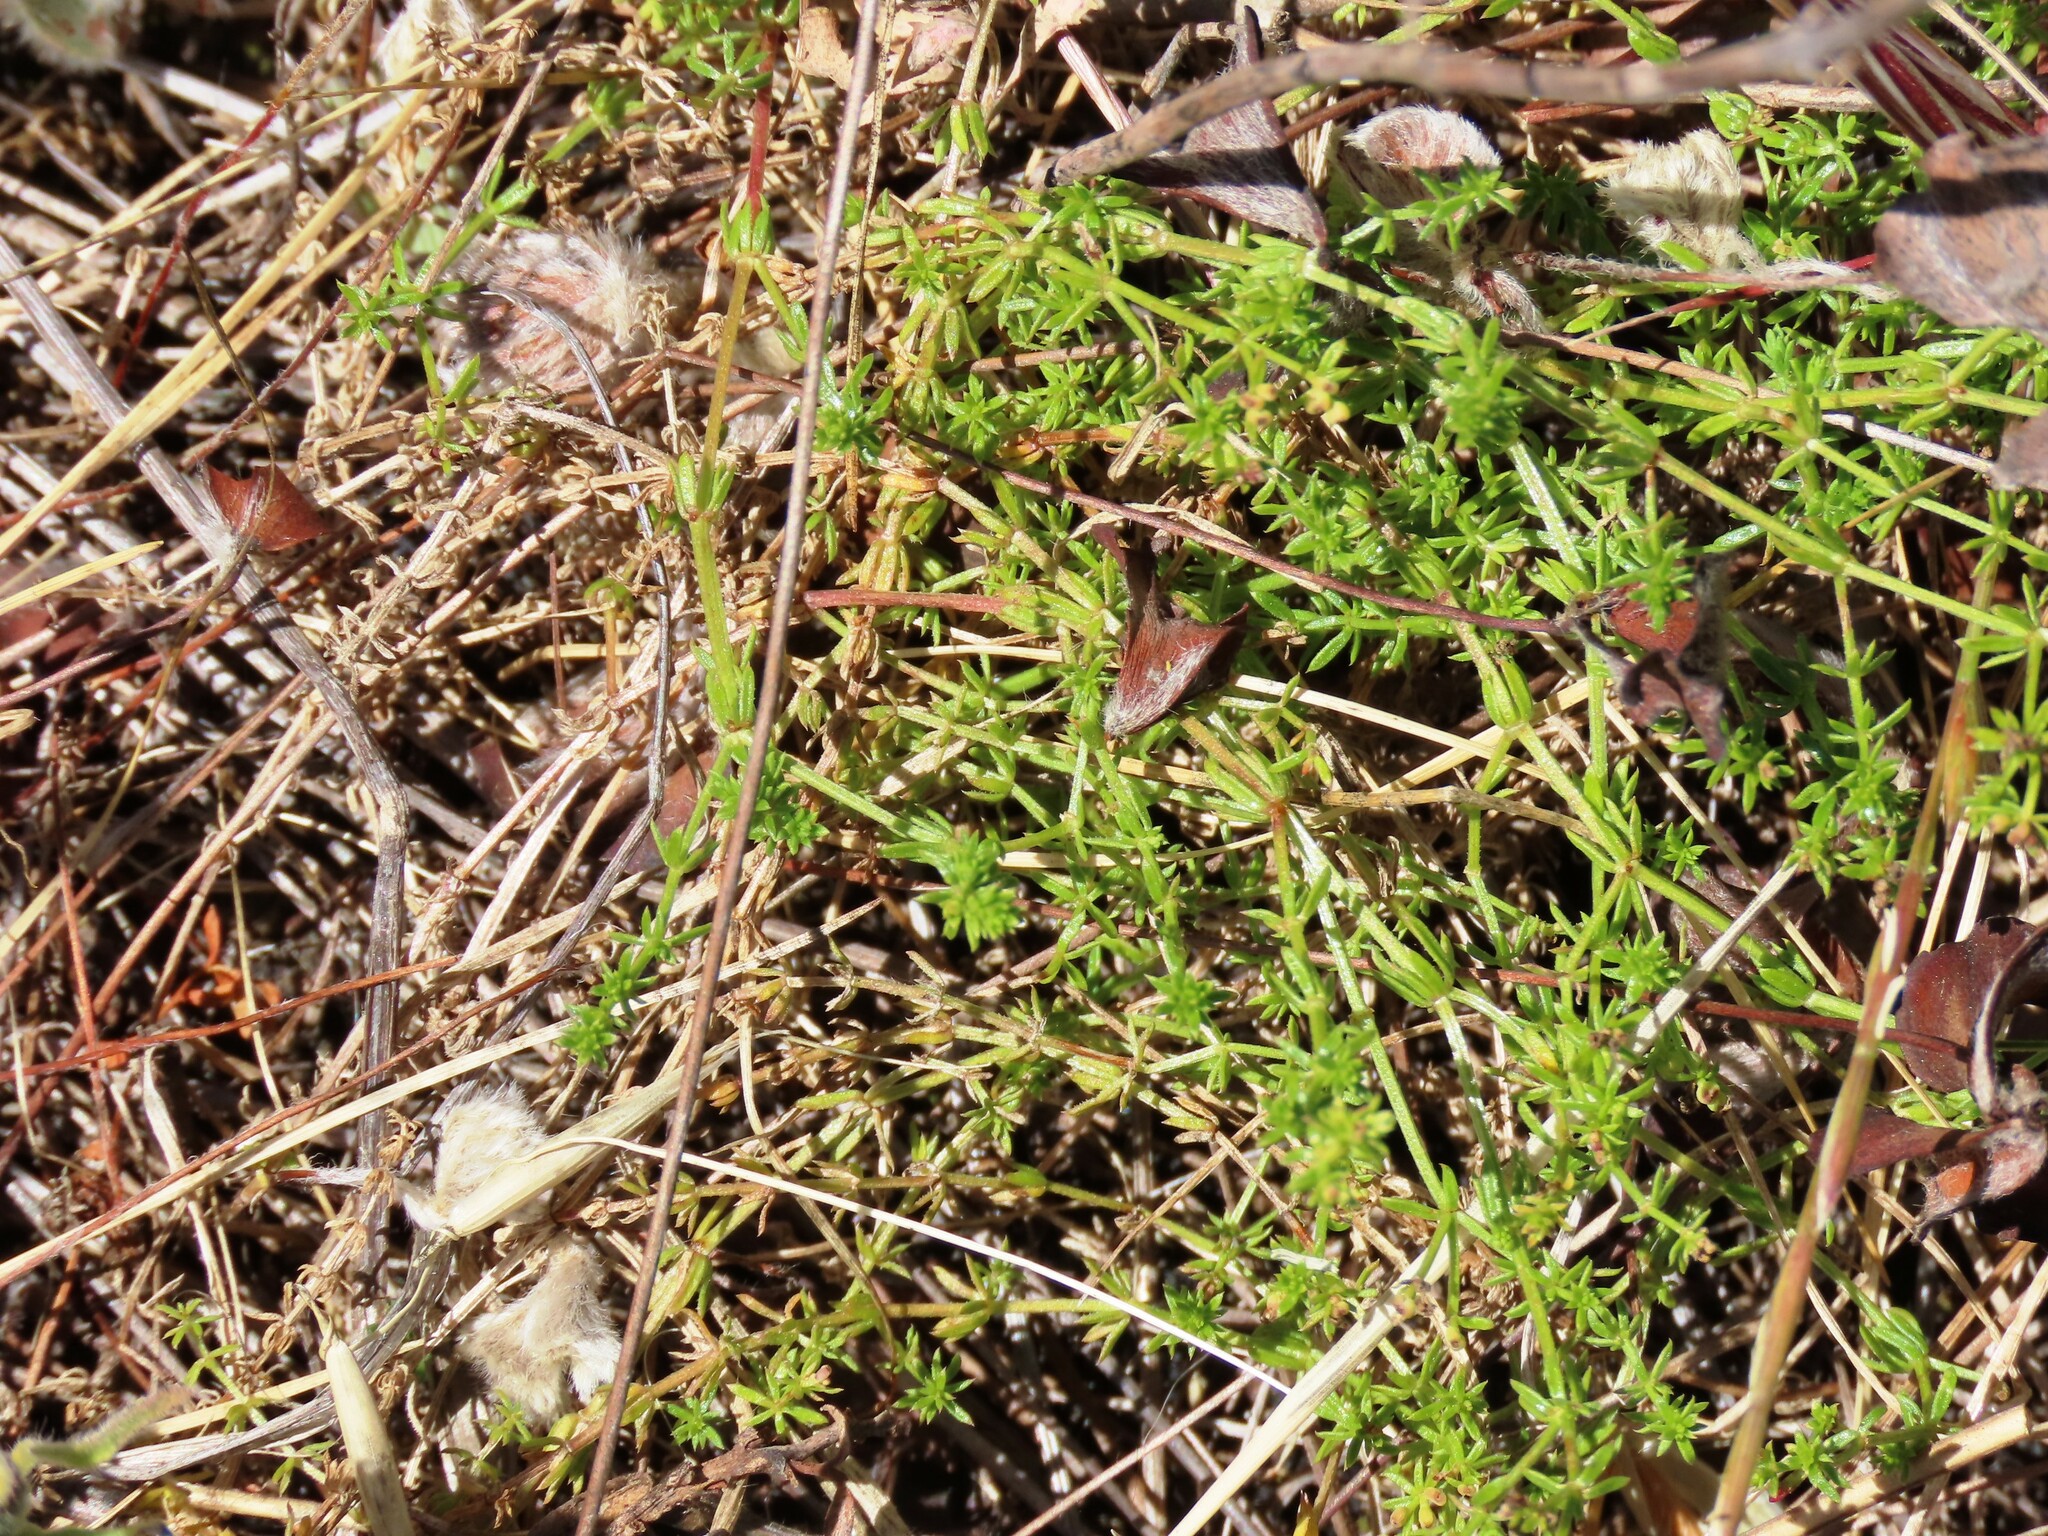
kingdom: Plantae
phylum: Tracheophyta
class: Magnoliopsida
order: Gentianales
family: Rubiaceae
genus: Asperula
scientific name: Asperula conferta
